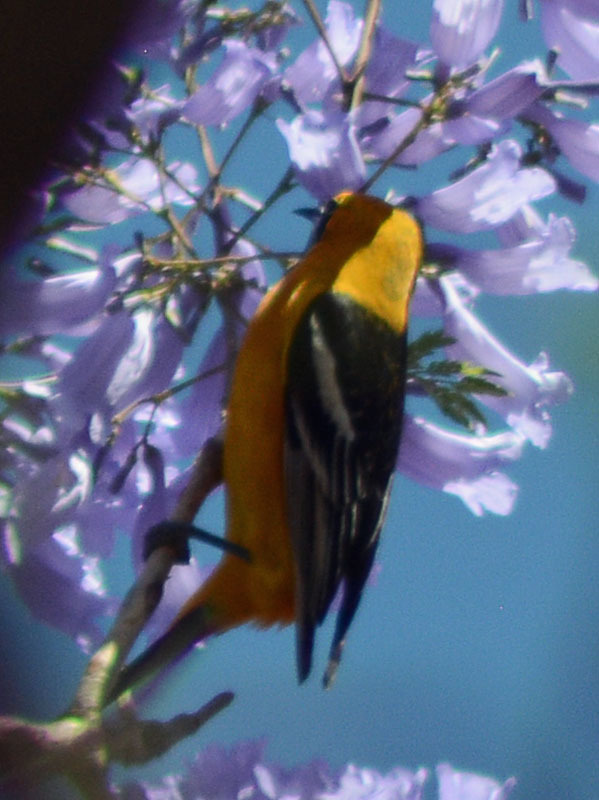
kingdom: Animalia
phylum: Chordata
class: Aves
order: Passeriformes
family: Icteridae
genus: Icterus
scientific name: Icterus cucullatus
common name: Hooded oriole
